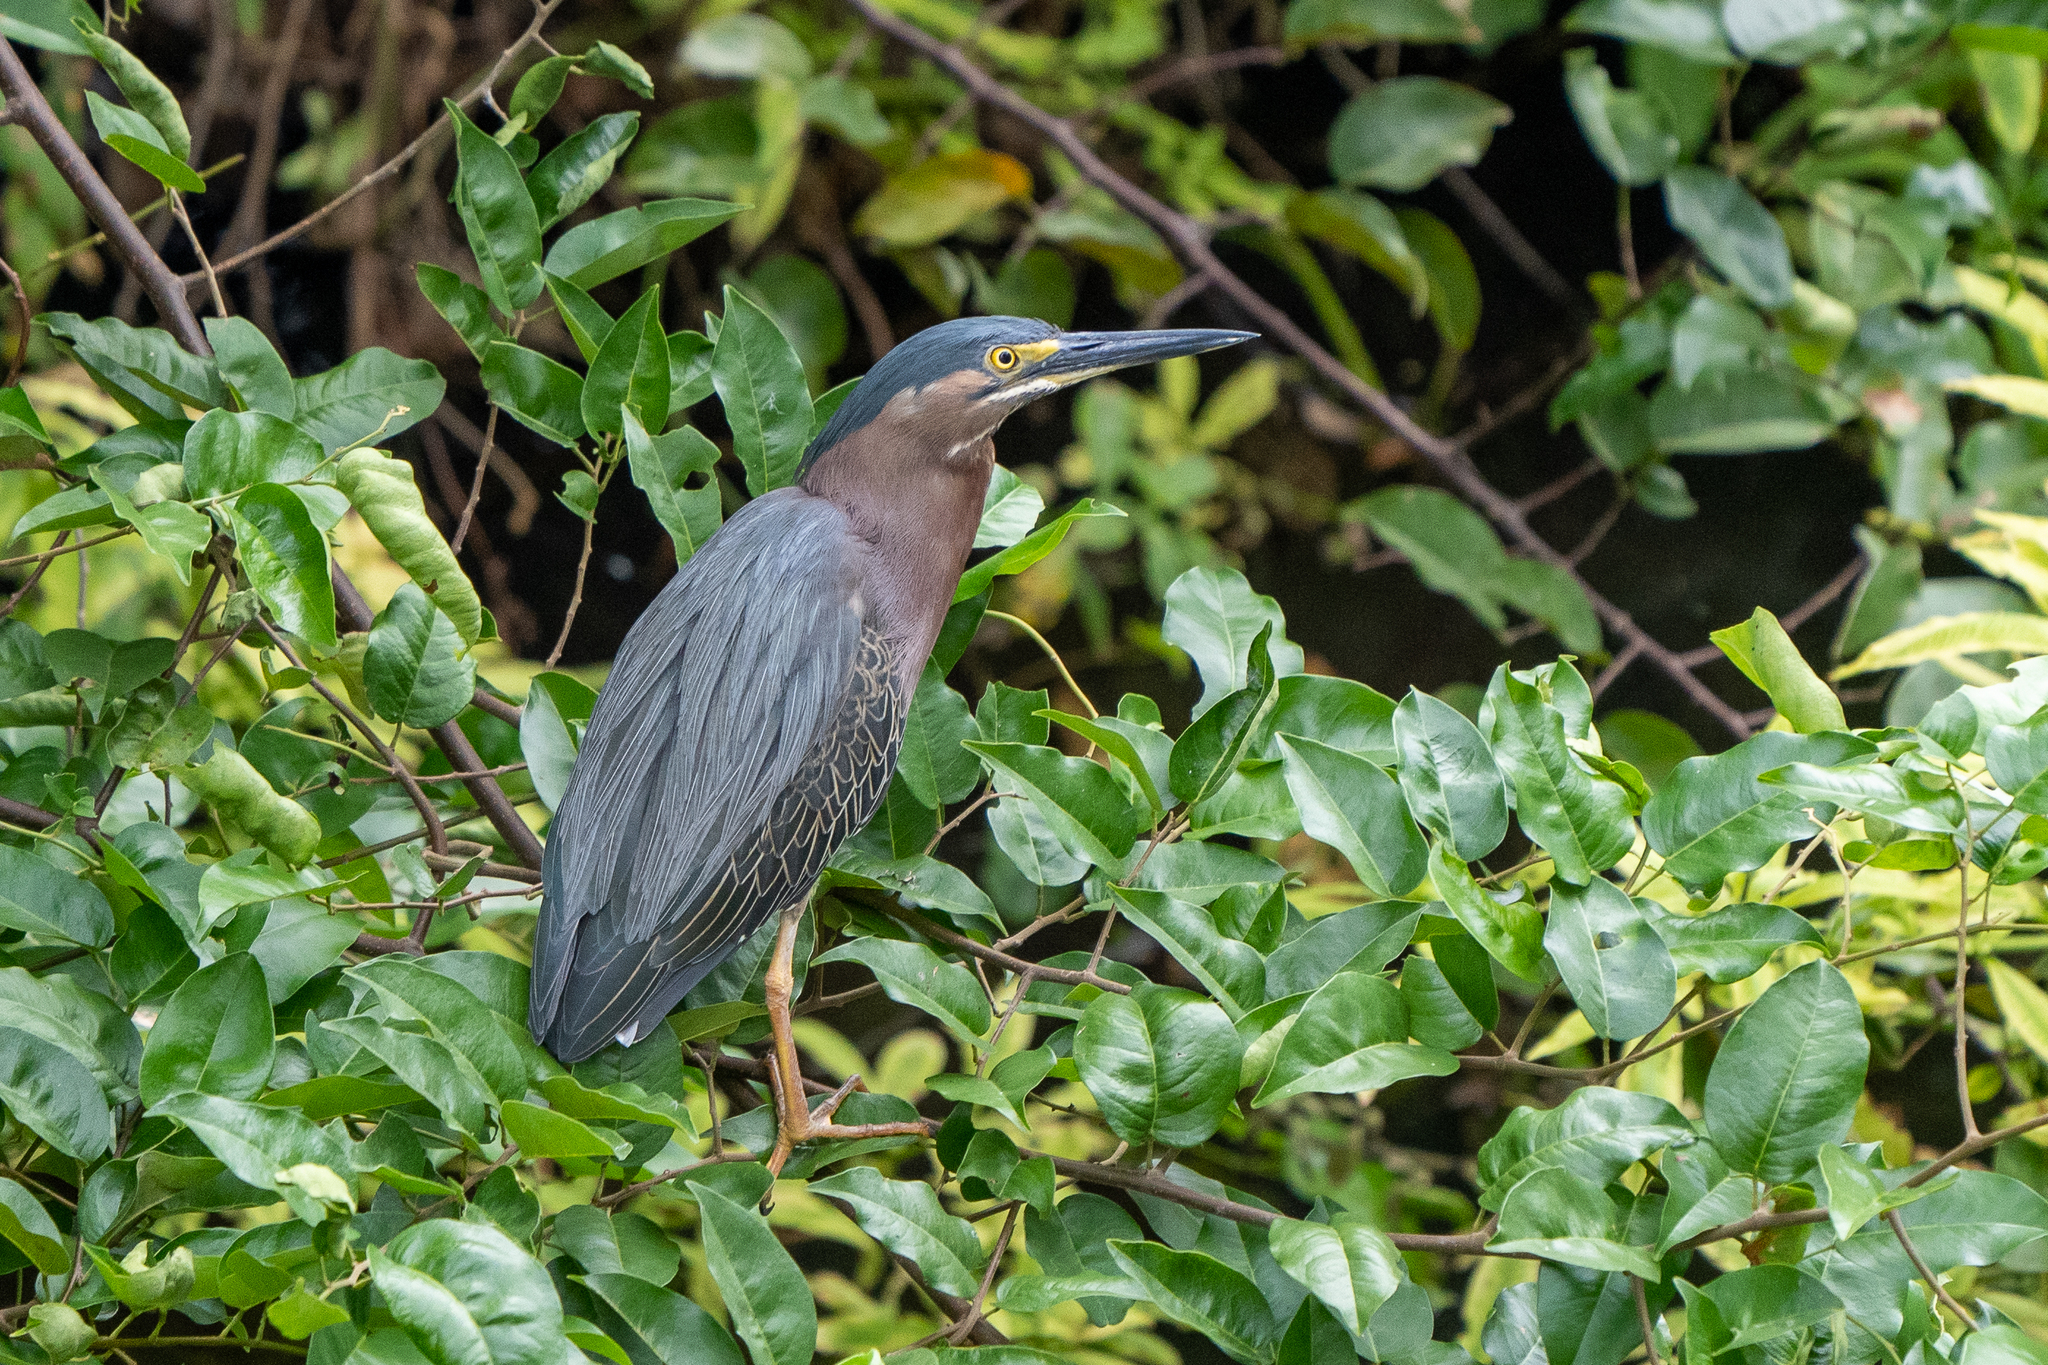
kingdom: Animalia
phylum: Chordata
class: Aves
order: Pelecaniformes
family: Ardeidae
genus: Butorides
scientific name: Butorides virescens
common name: Green heron
